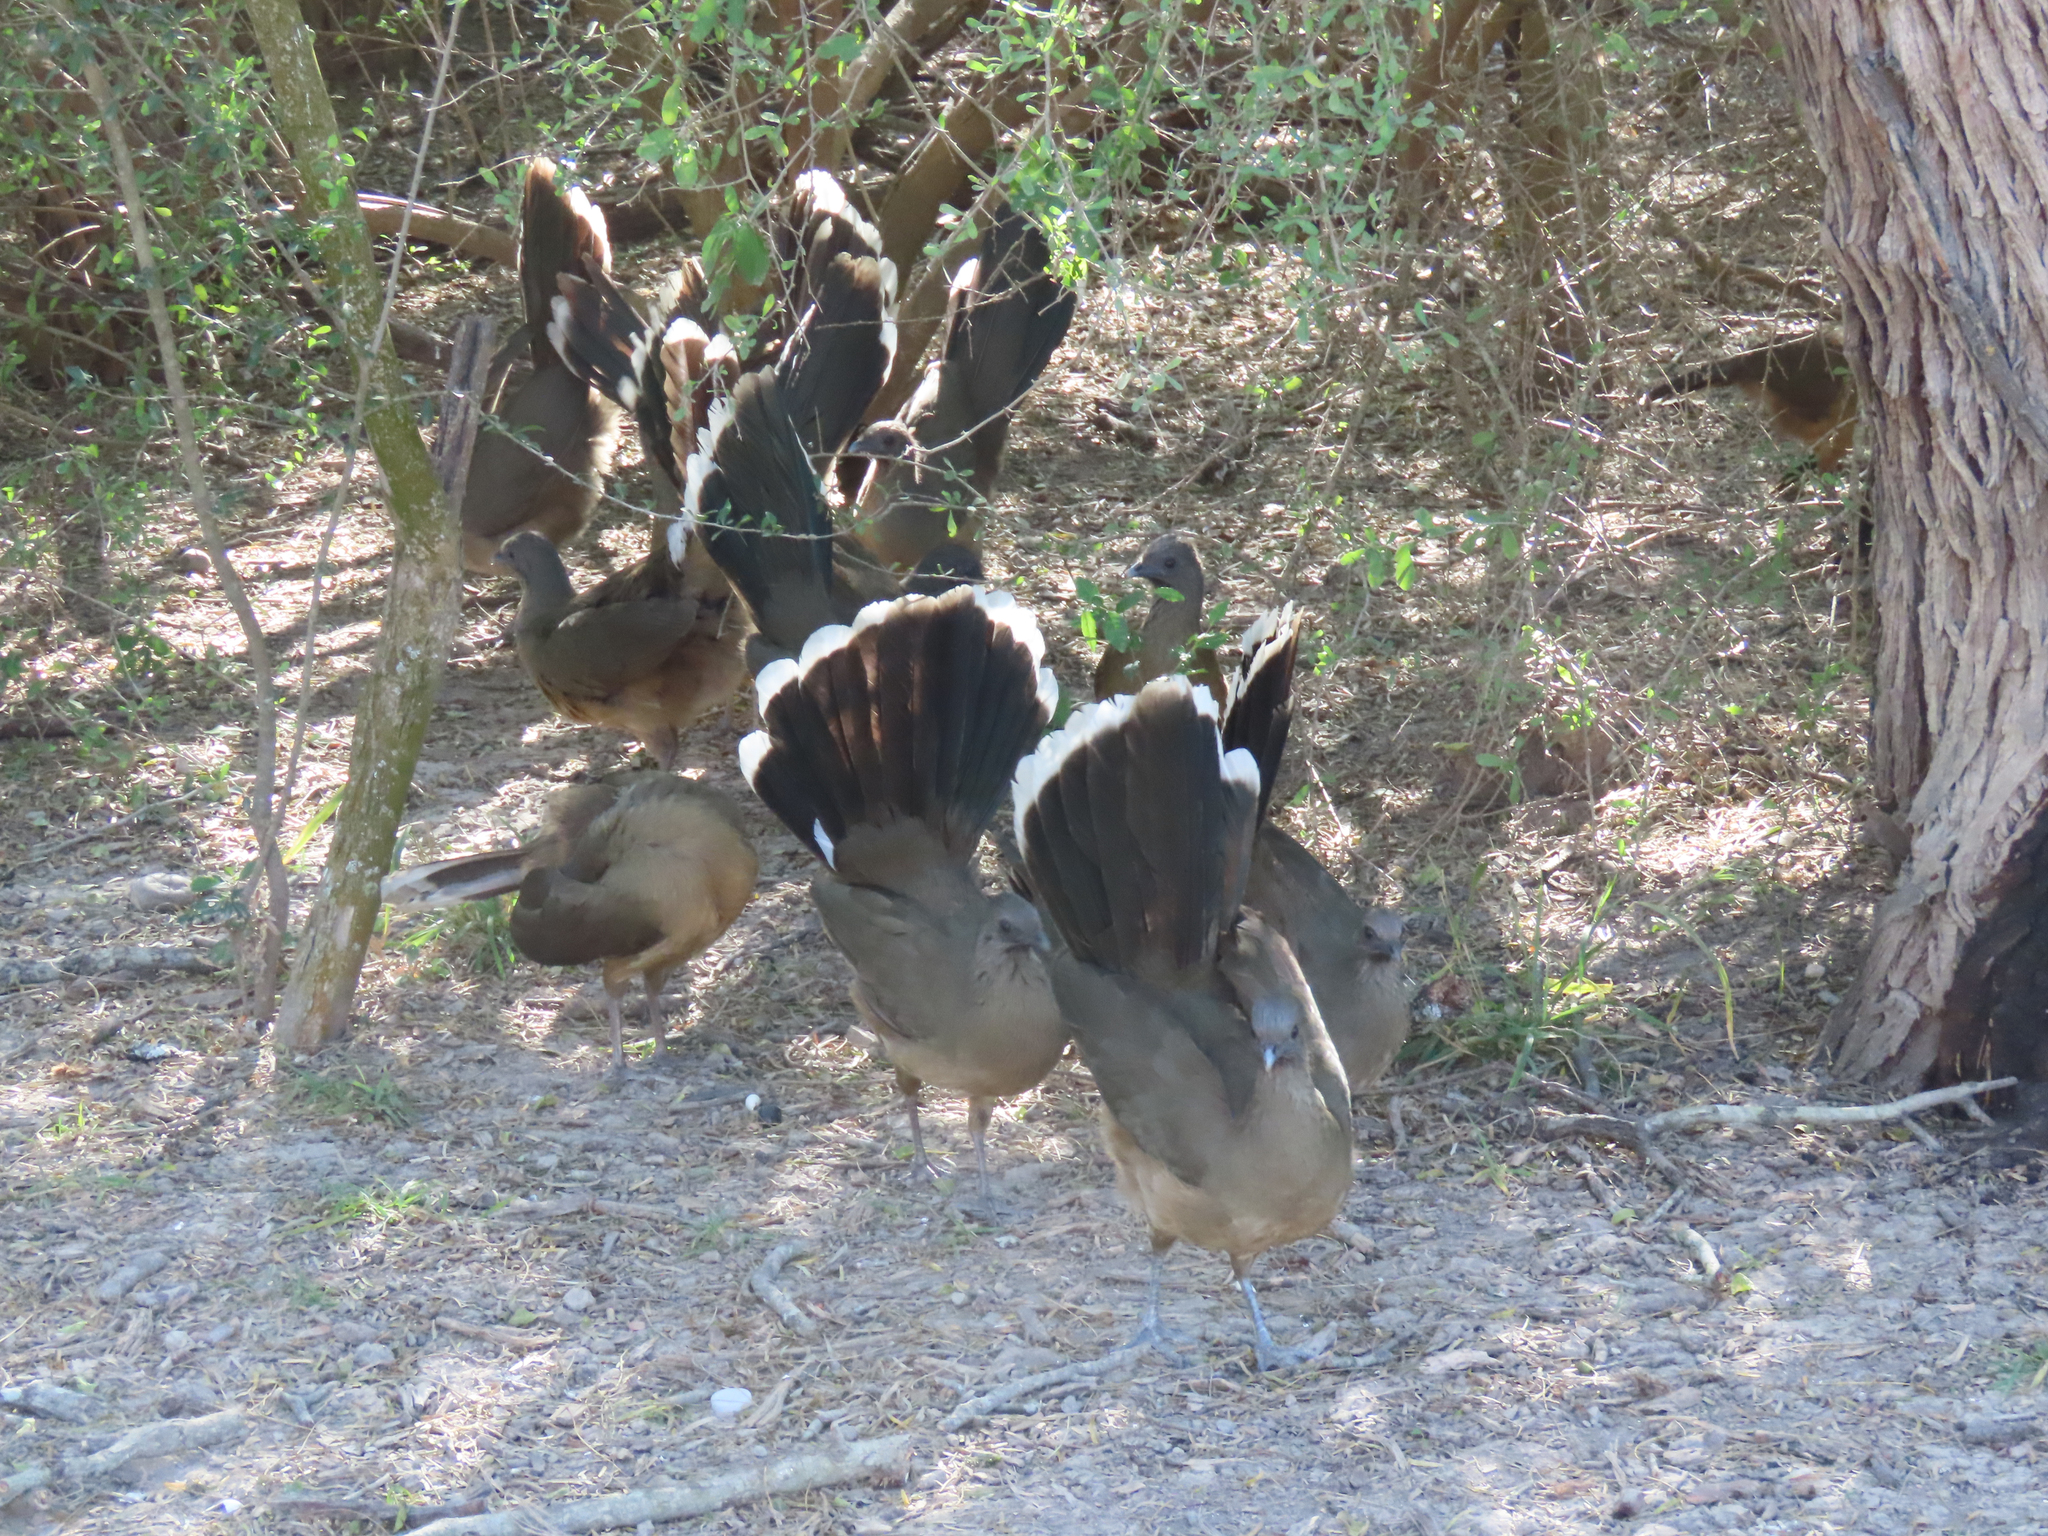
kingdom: Animalia
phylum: Chordata
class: Aves
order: Galliformes
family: Cracidae
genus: Ortalis
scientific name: Ortalis vetula
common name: Plain chachalaca
